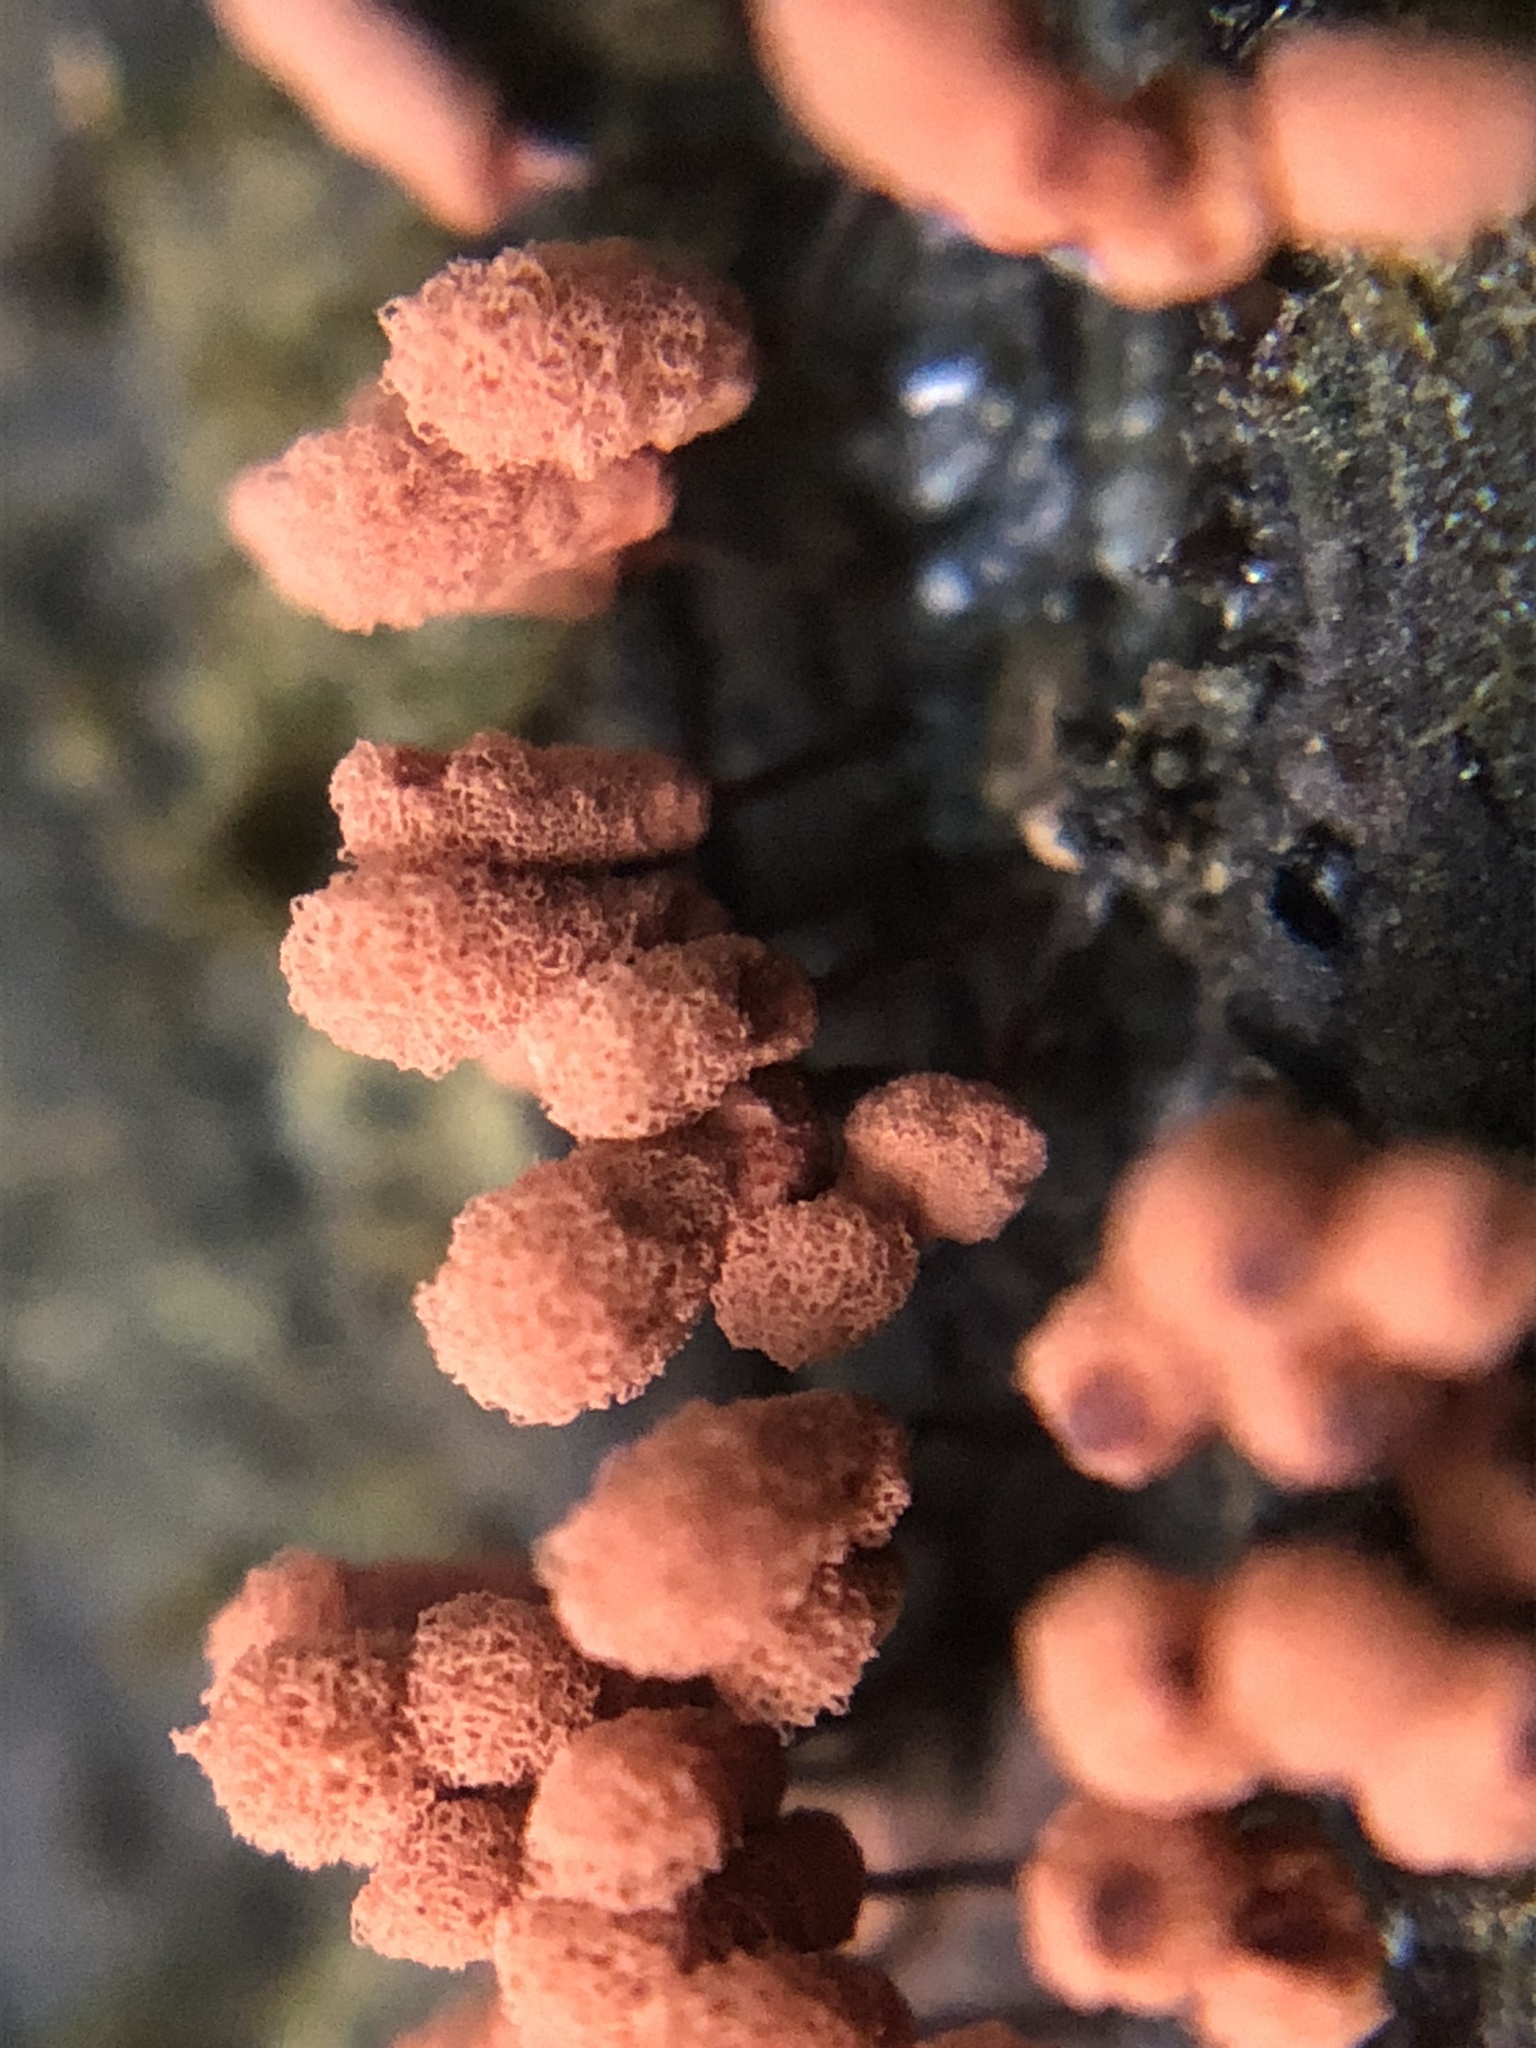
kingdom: Protozoa
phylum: Mycetozoa
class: Myxomycetes
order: Trichiales
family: Arcyriaceae
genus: Arcyria
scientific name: Arcyria denudata
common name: Carnival candy slime mold
